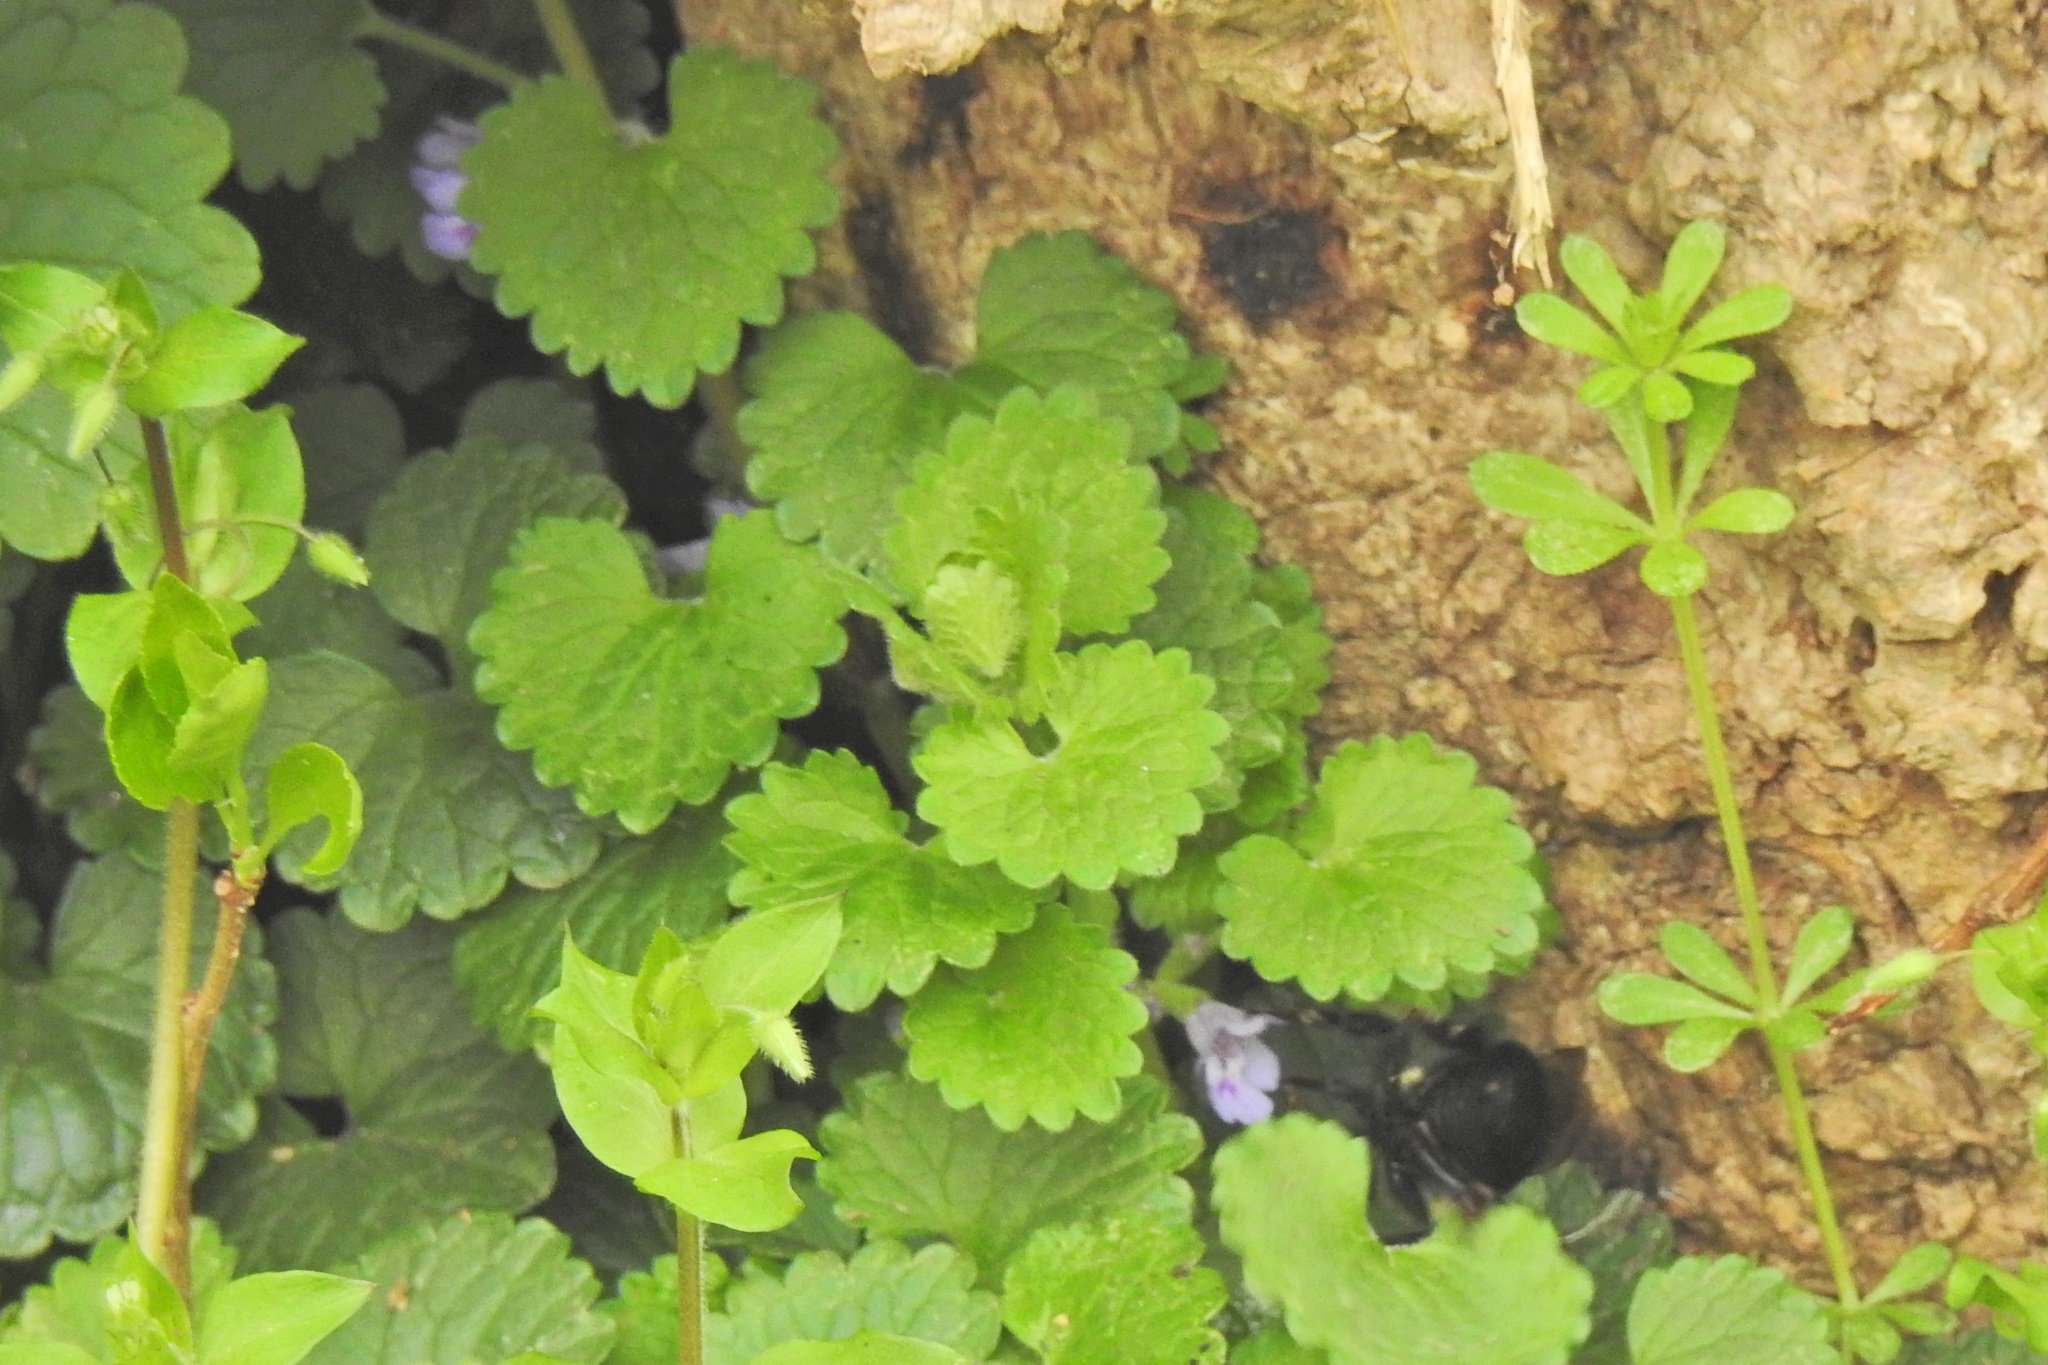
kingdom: Plantae
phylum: Tracheophyta
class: Magnoliopsida
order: Lamiales
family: Lamiaceae
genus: Glechoma
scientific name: Glechoma hederacea
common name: Ground ivy
